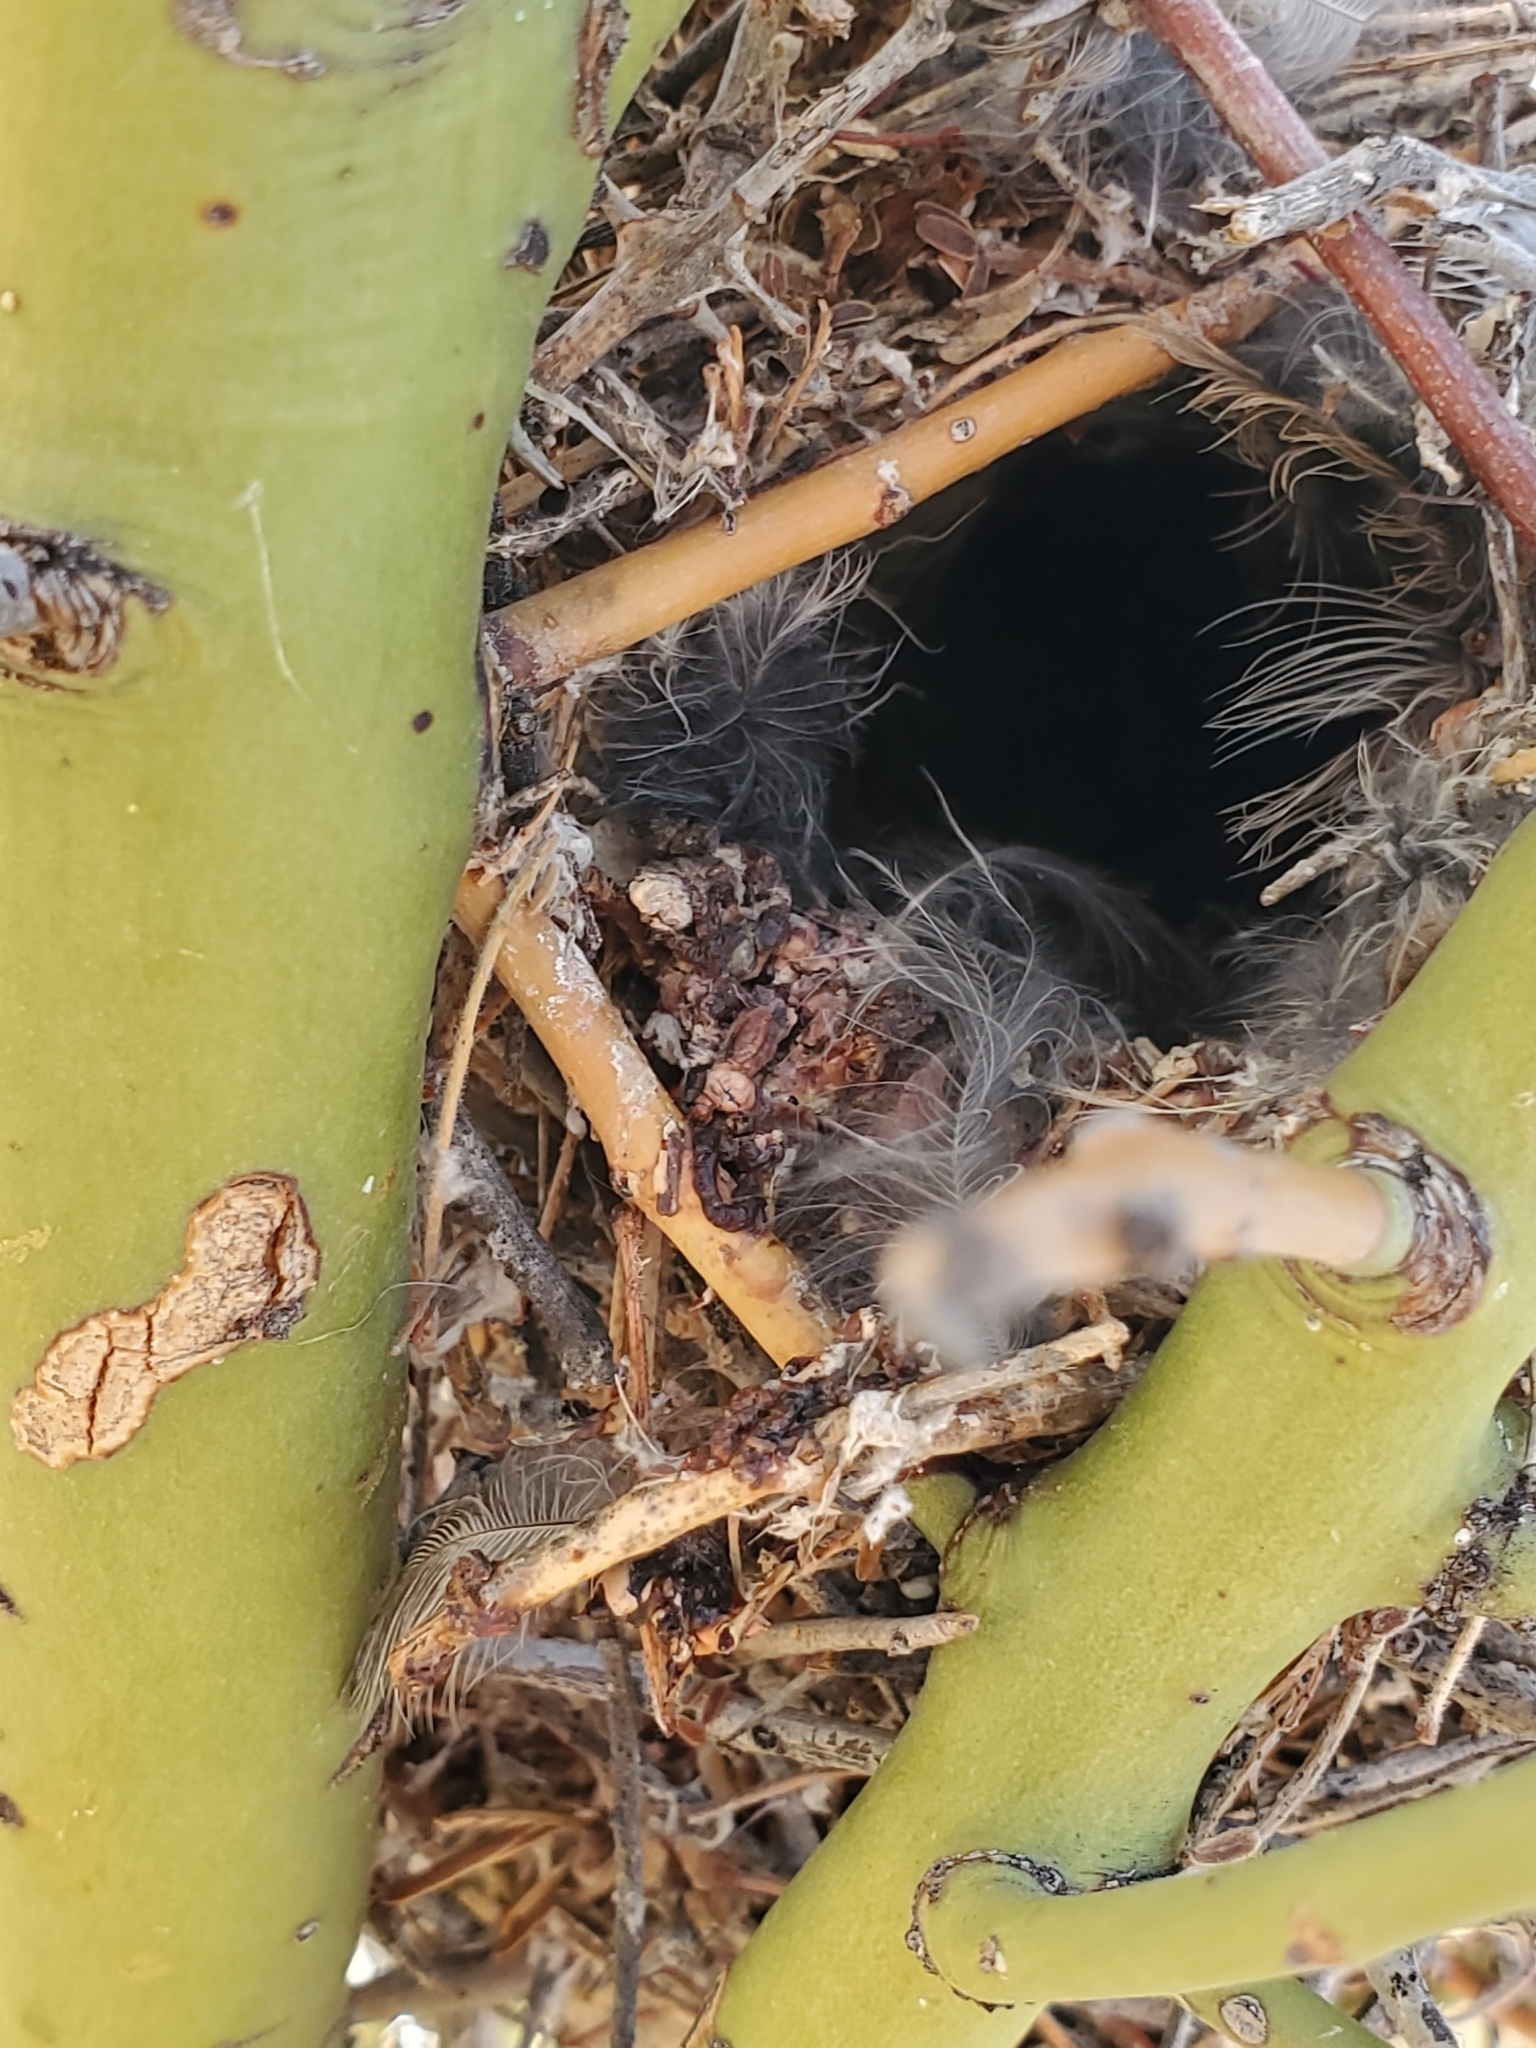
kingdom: Plantae
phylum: Tracheophyta
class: Magnoliopsida
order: Fabales
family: Fabaceae
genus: Parkinsonia
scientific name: Parkinsonia microphylla
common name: Yellow paloverde
